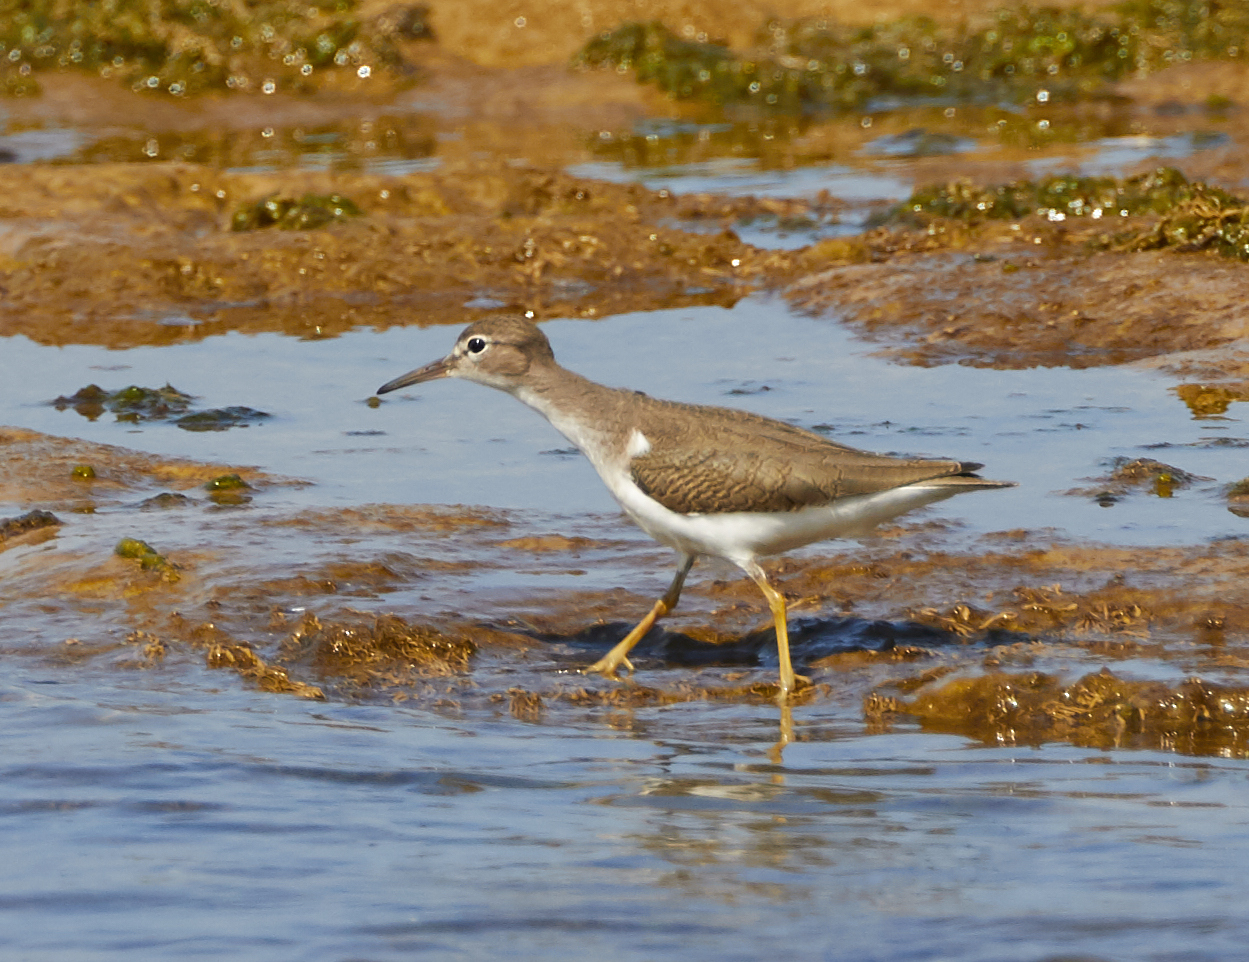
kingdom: Animalia
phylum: Chordata
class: Aves
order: Charadriiformes
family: Scolopacidae
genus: Actitis
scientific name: Actitis macularius
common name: Spotted sandpiper
